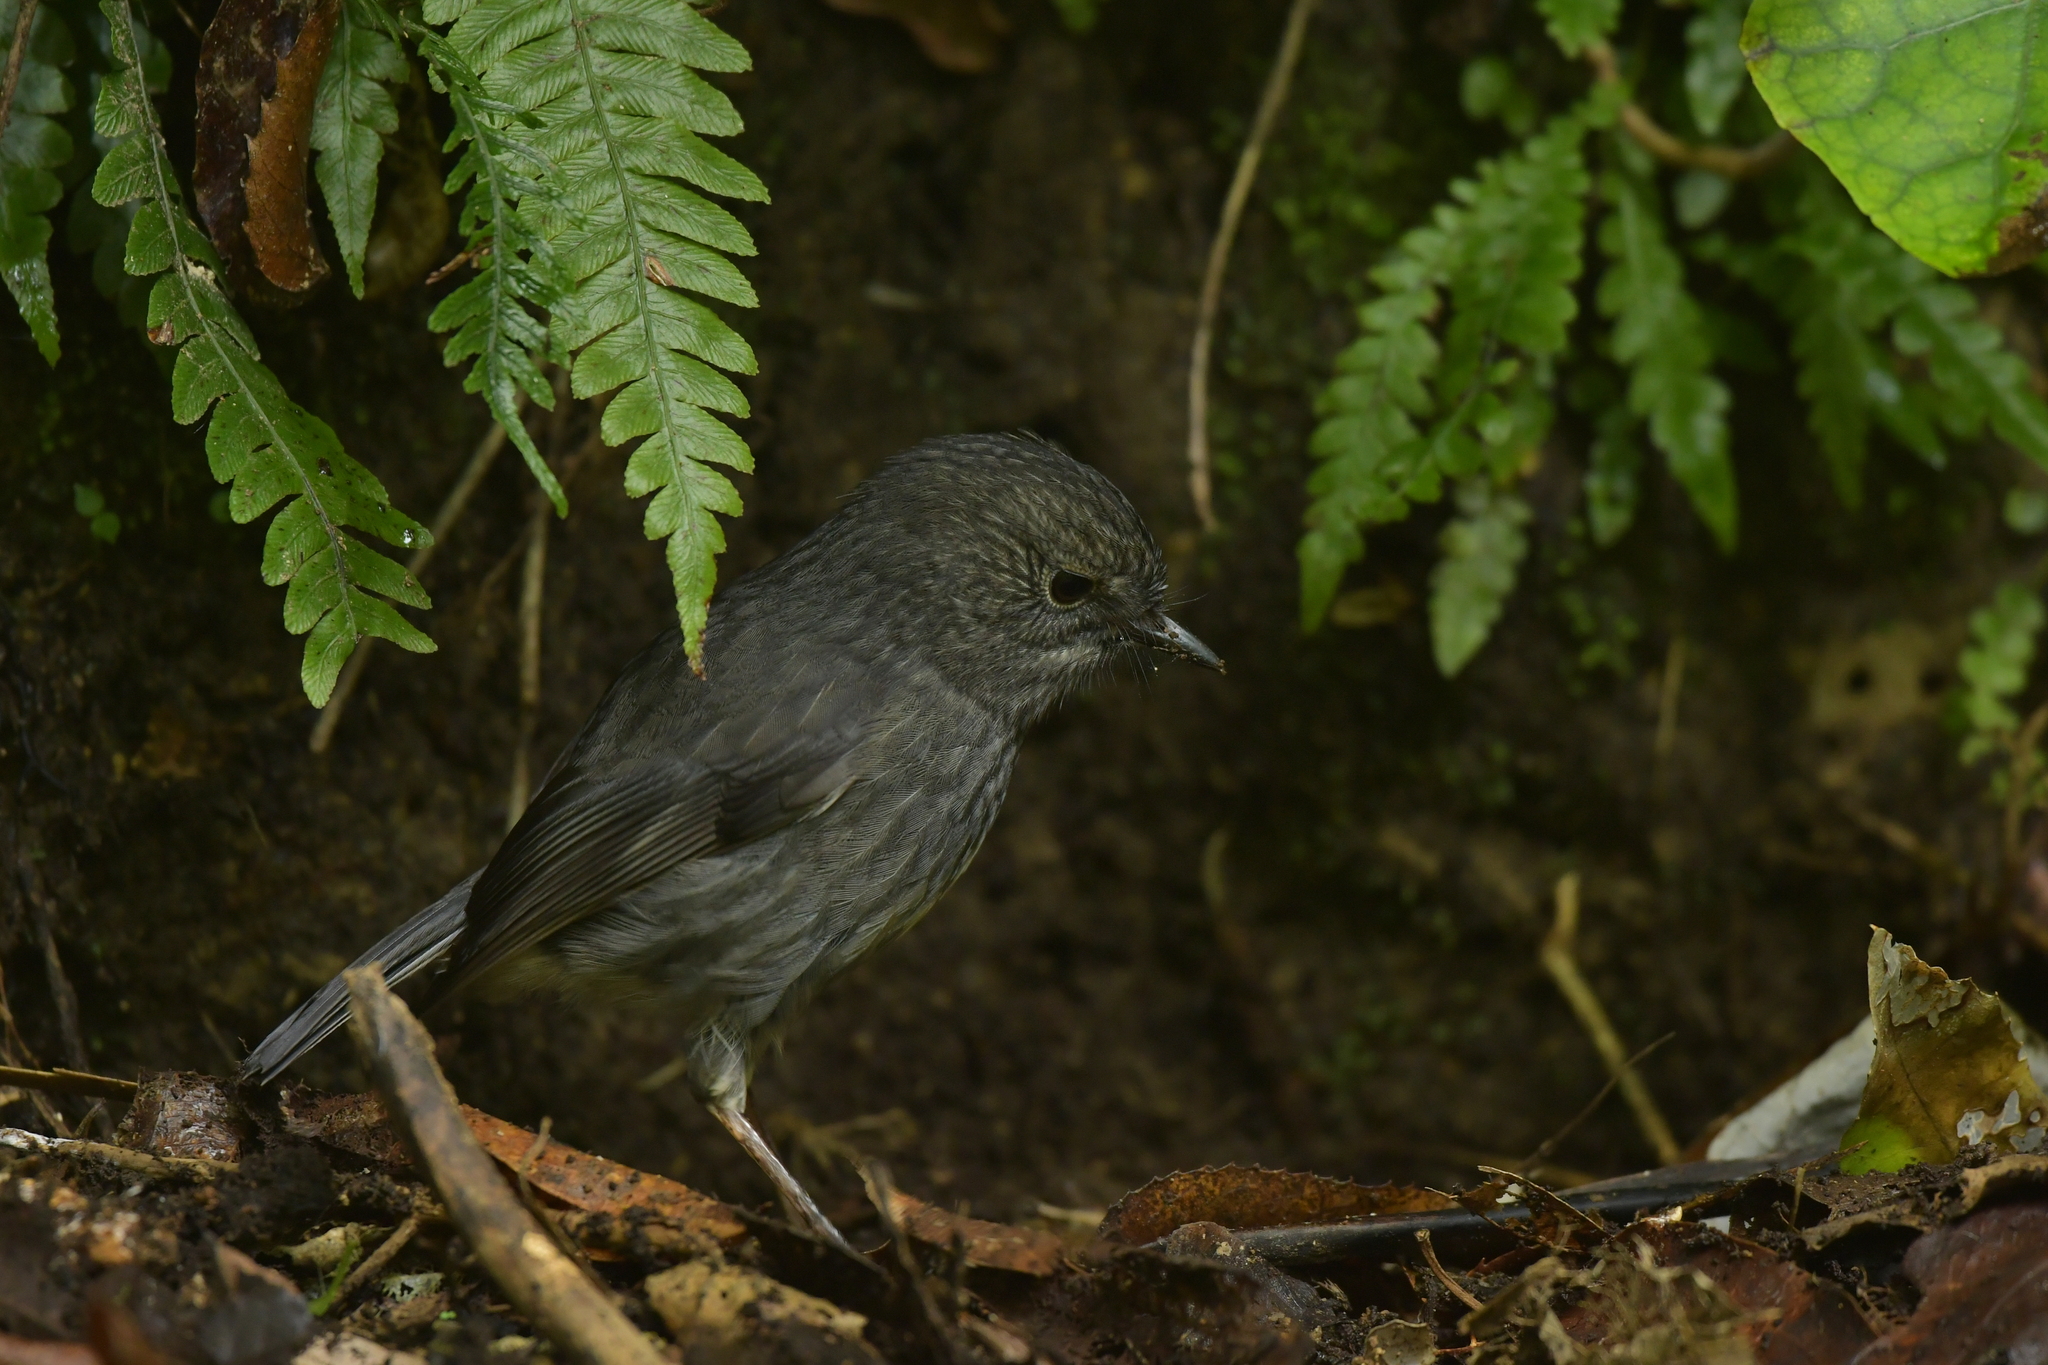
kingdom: Animalia
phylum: Chordata
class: Aves
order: Passeriformes
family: Petroicidae
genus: Petroica
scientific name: Petroica australis
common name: New zealand robin
